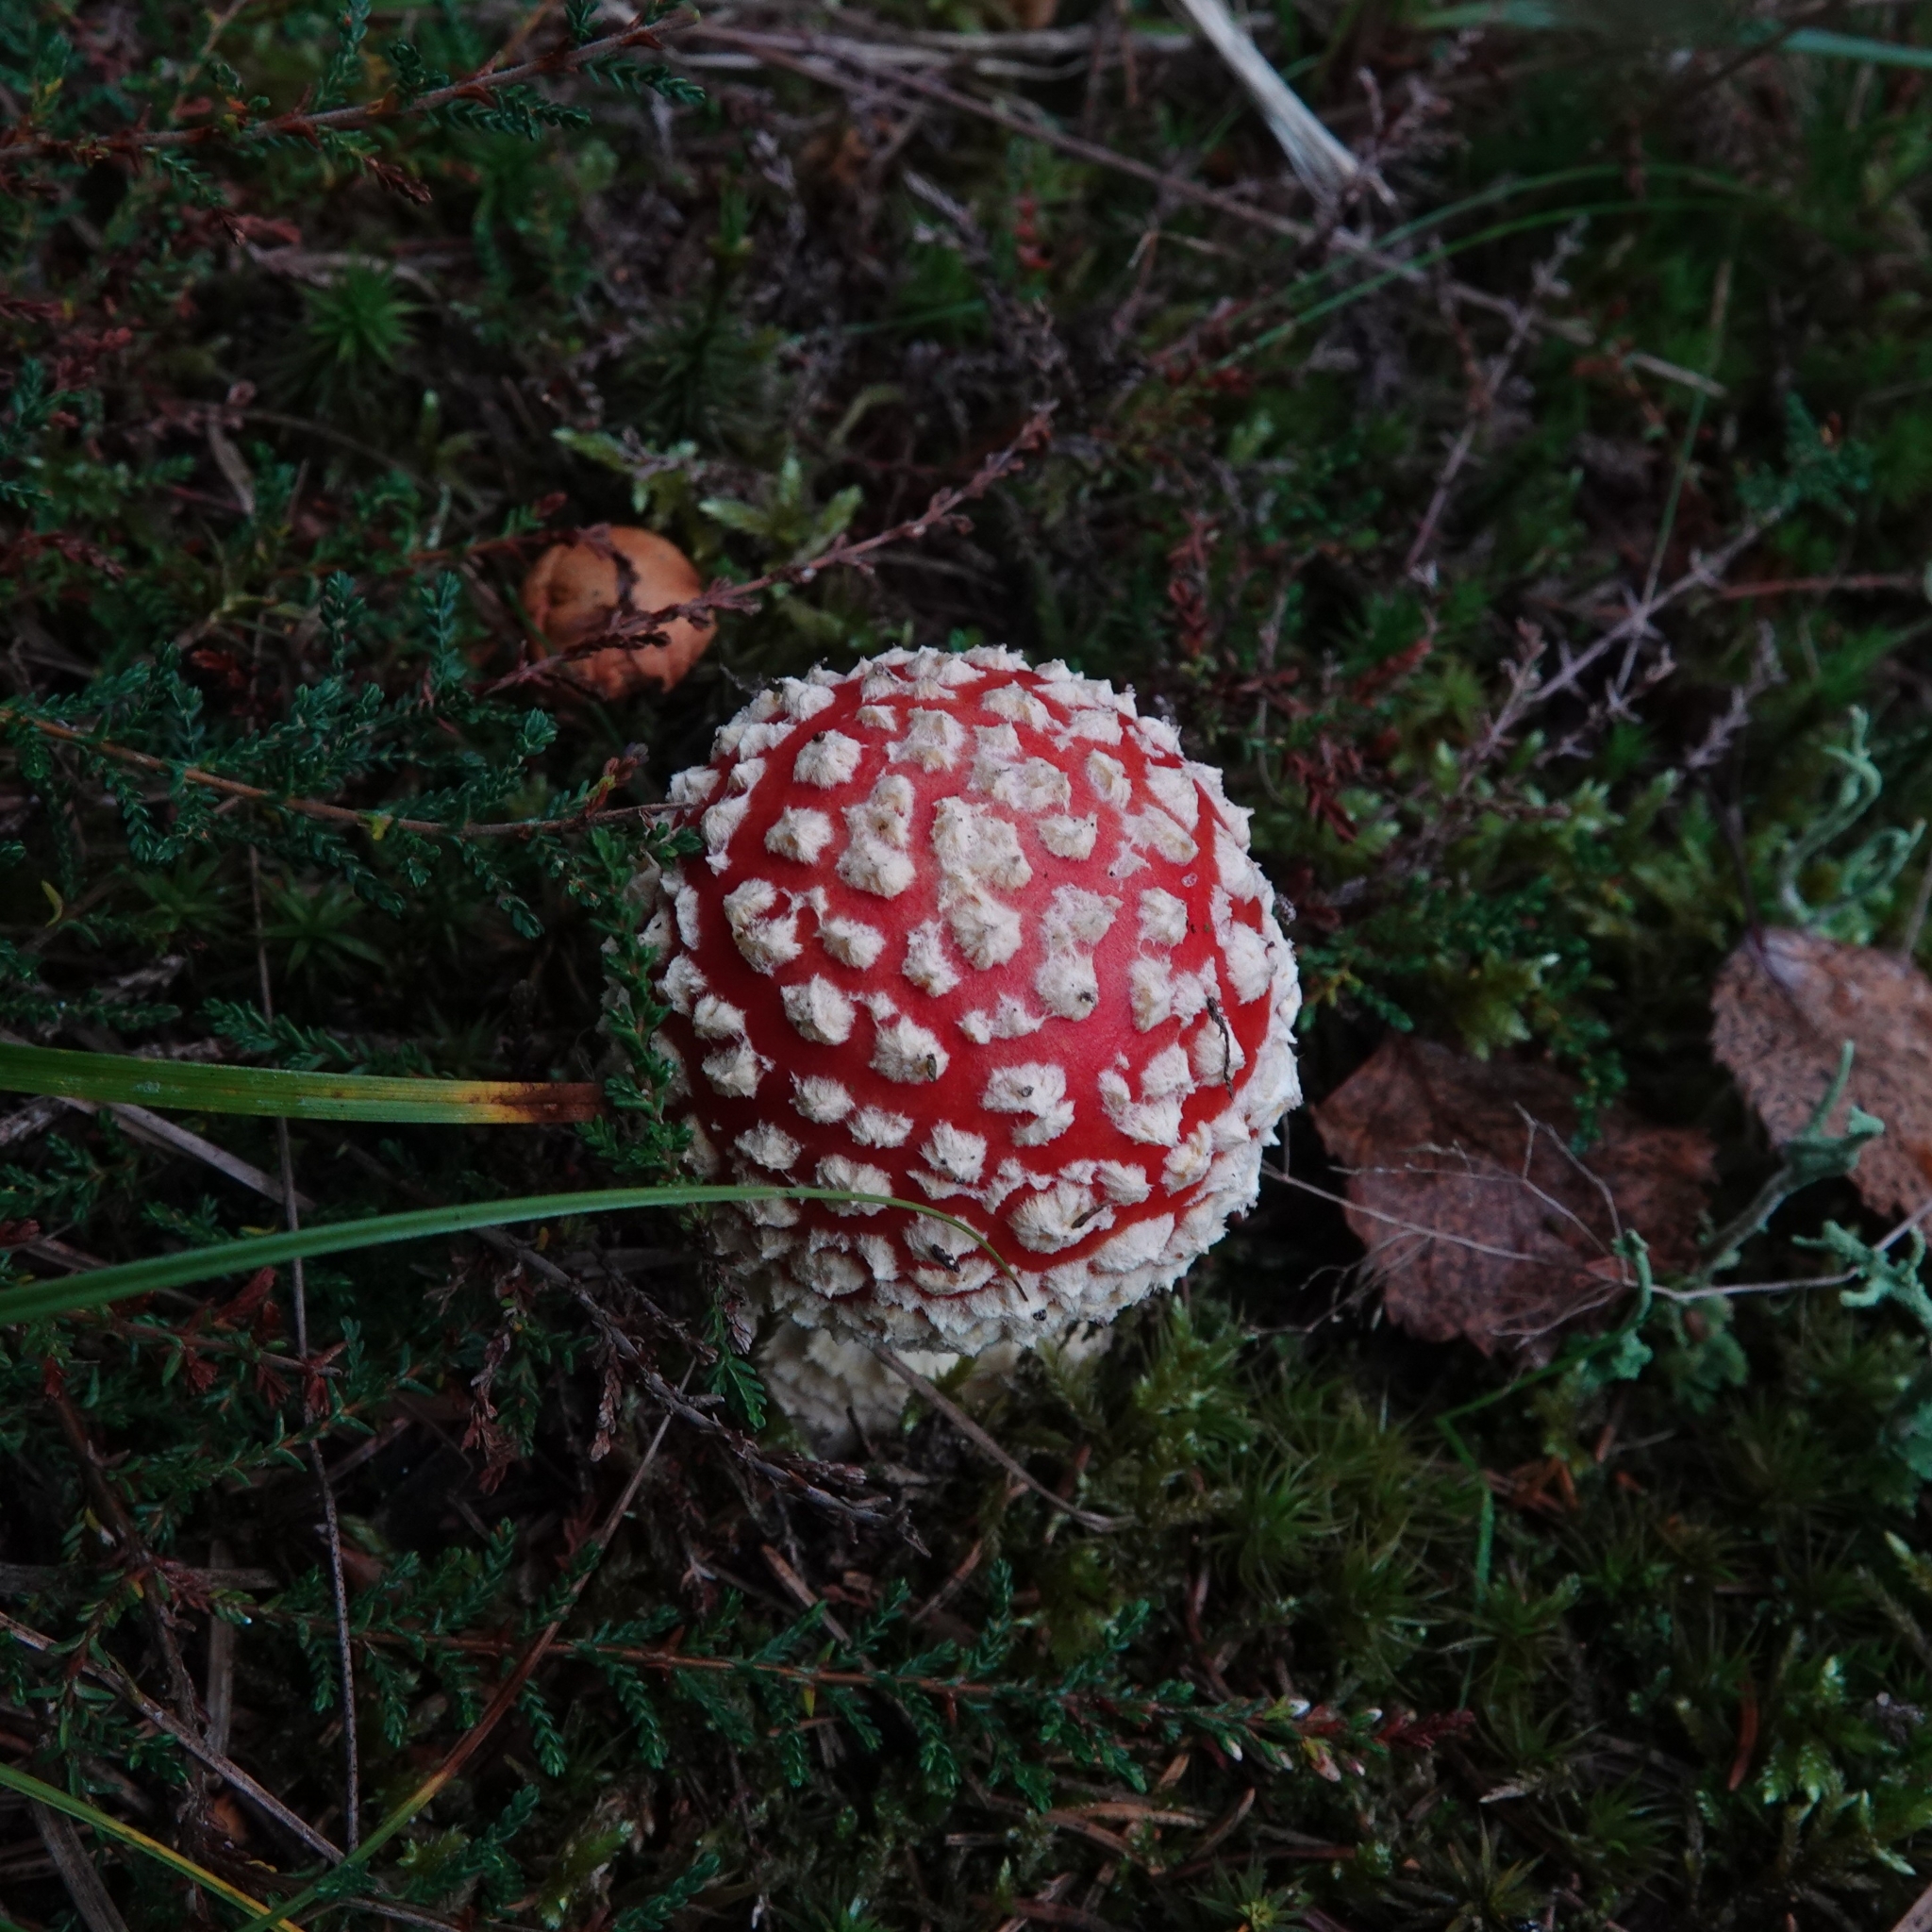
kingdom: Fungi
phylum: Basidiomycota
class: Agaricomycetes
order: Agaricales
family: Amanitaceae
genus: Amanita
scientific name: Amanita muscaria
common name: Fly agaric
